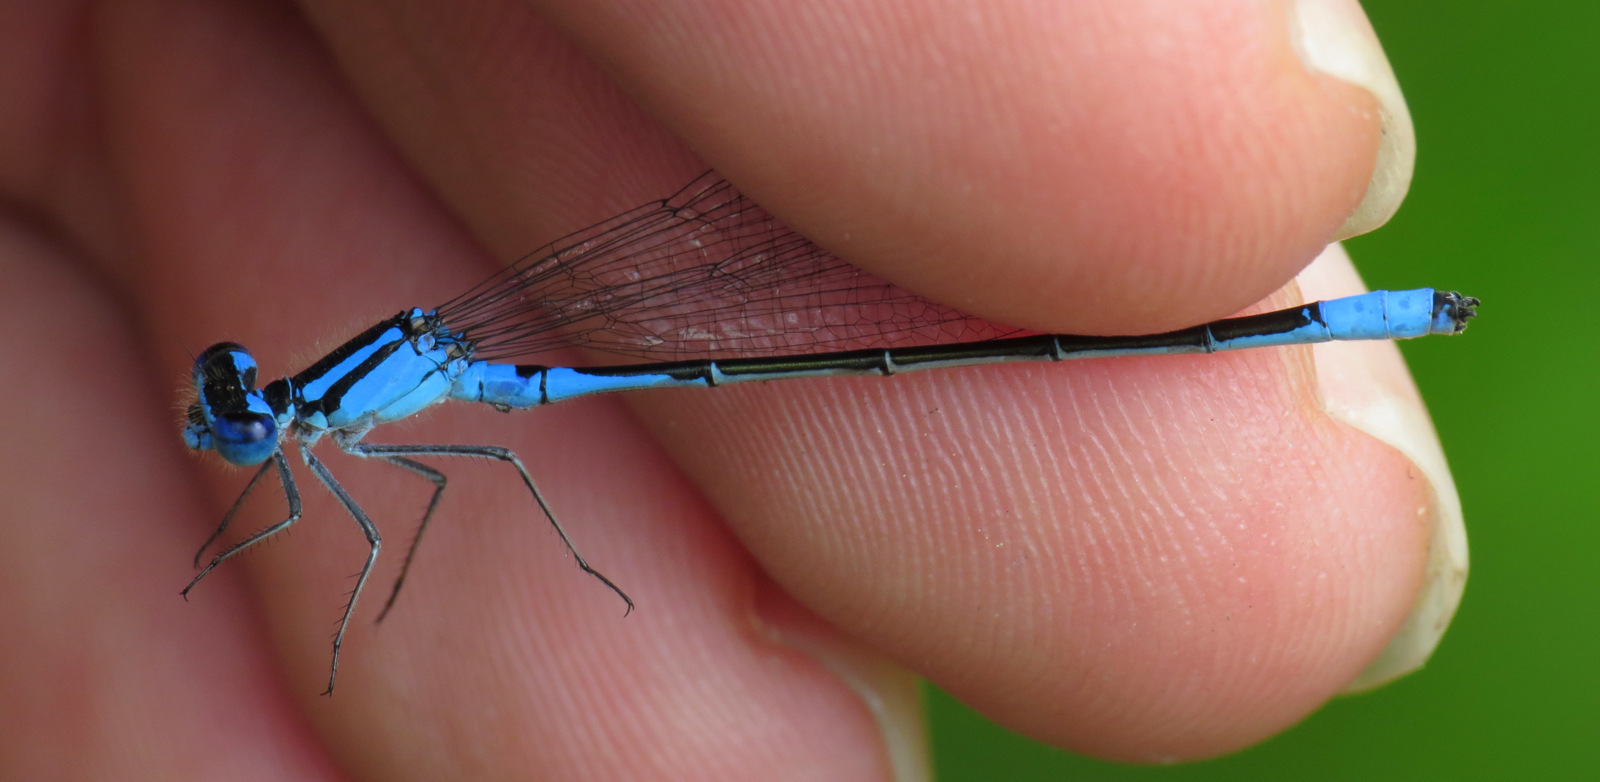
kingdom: Animalia
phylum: Arthropoda
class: Insecta
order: Odonata
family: Coenagrionidae
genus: Enallagma
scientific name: Enallagma aspersum
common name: Azure bluet
